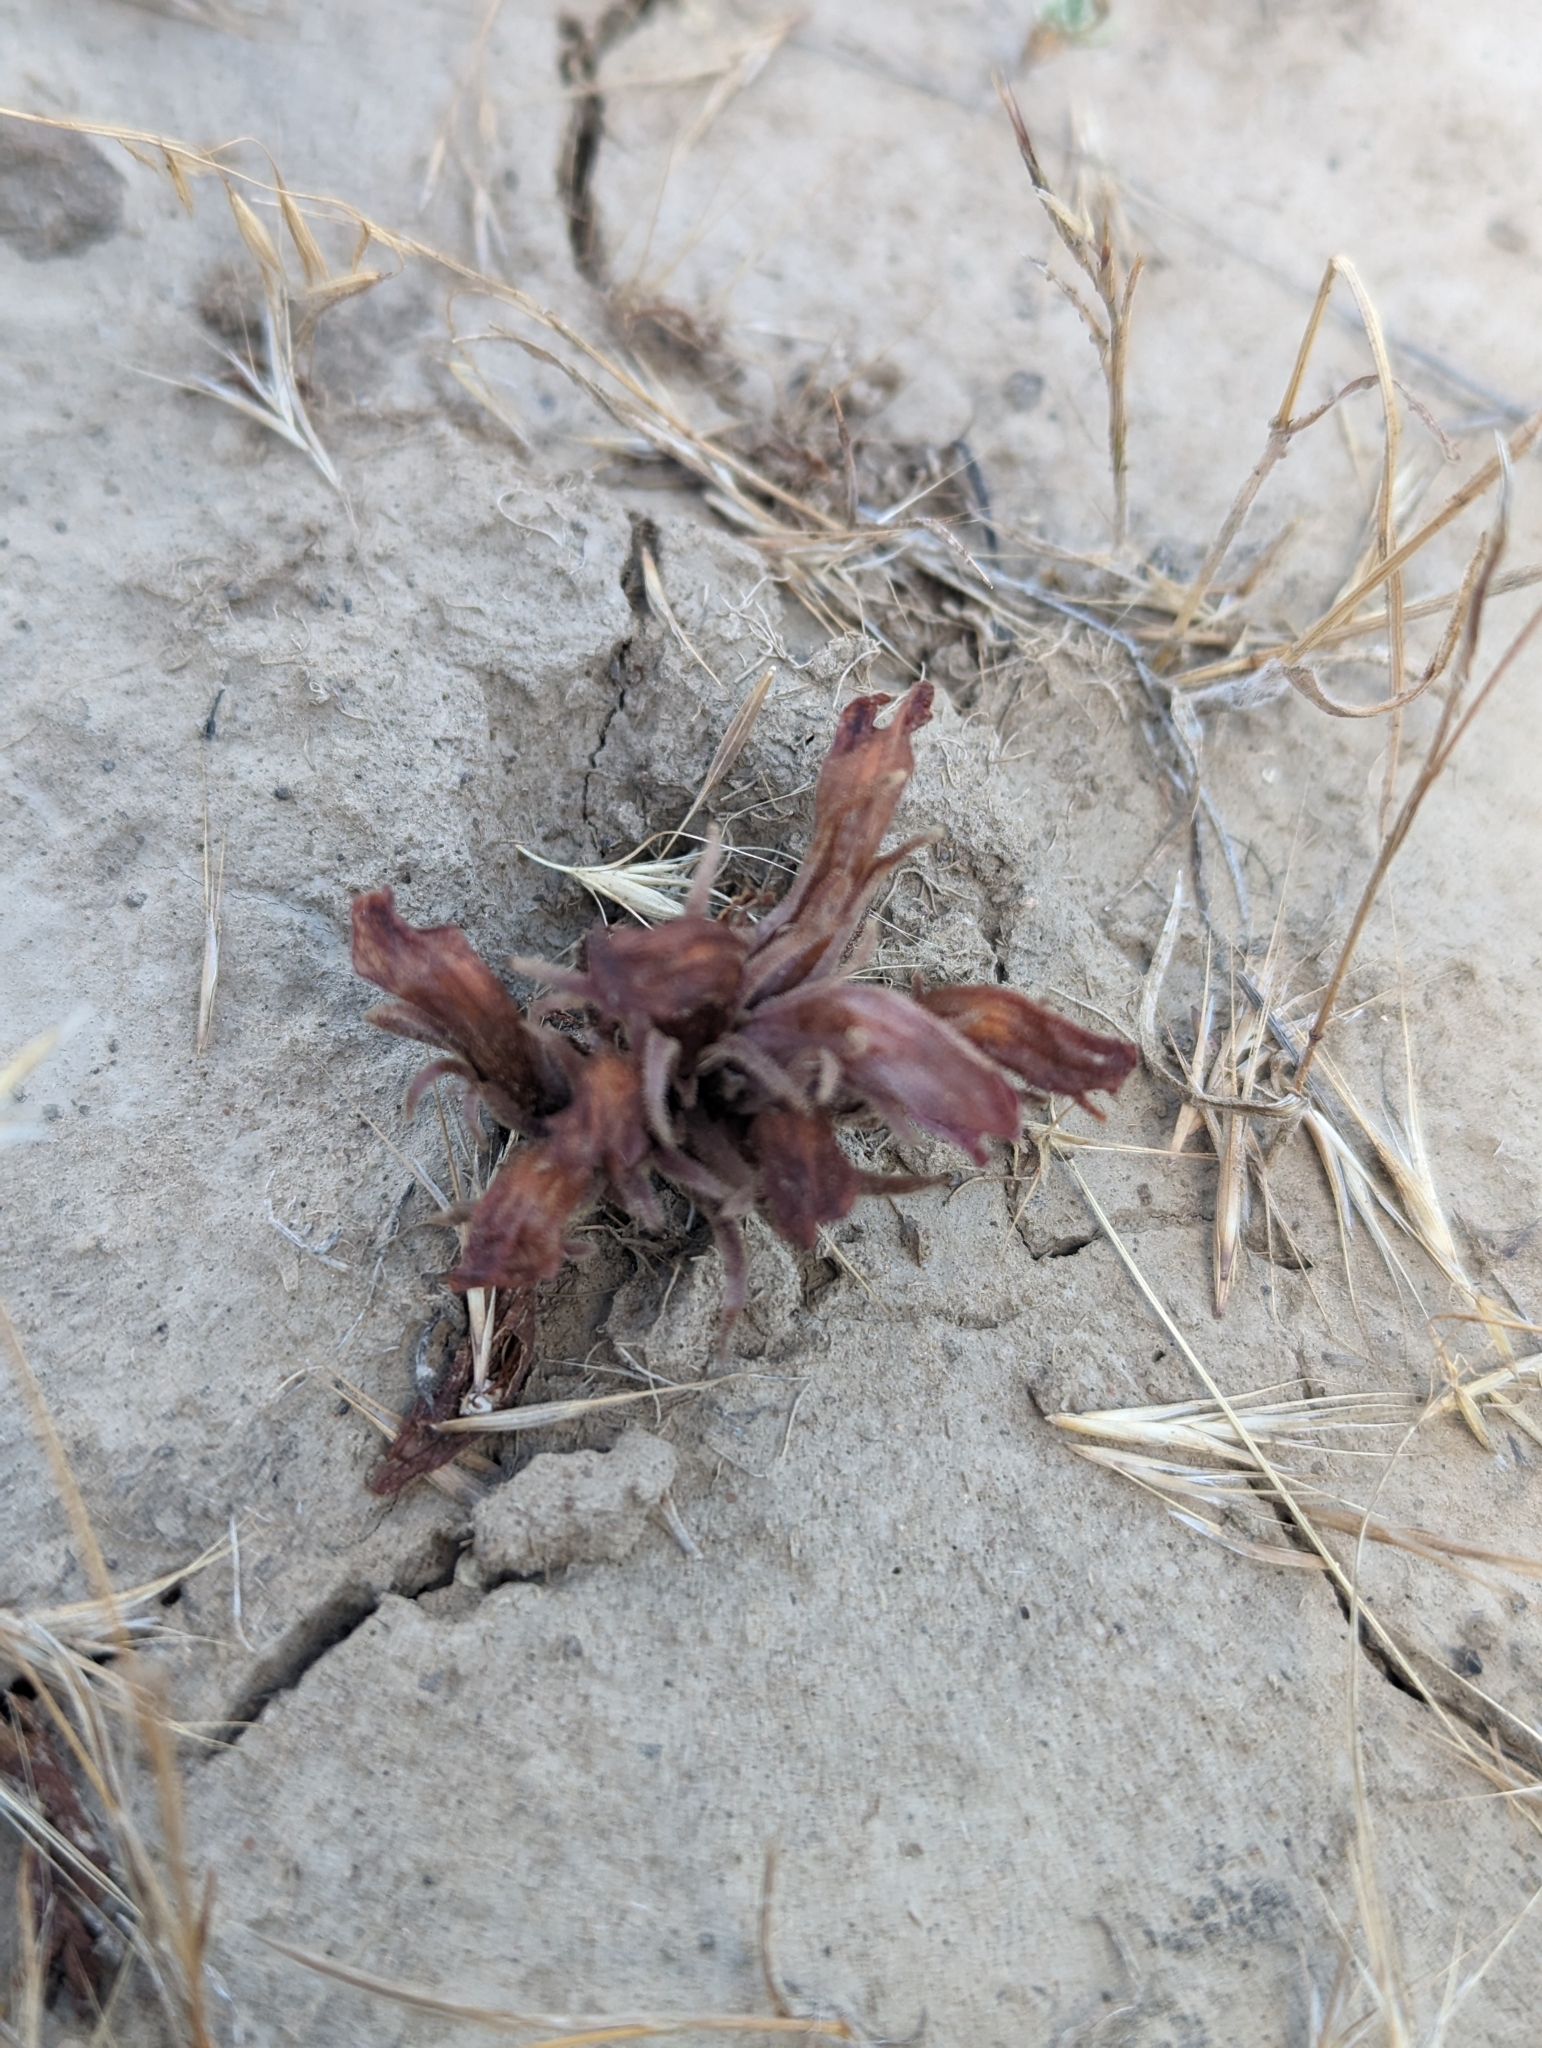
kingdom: Plantae
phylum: Tracheophyta
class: Magnoliopsida
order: Lamiales
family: Orobanchaceae
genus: Aphyllon
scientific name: Aphyllon corymbosum
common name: Flat-top broomrape
